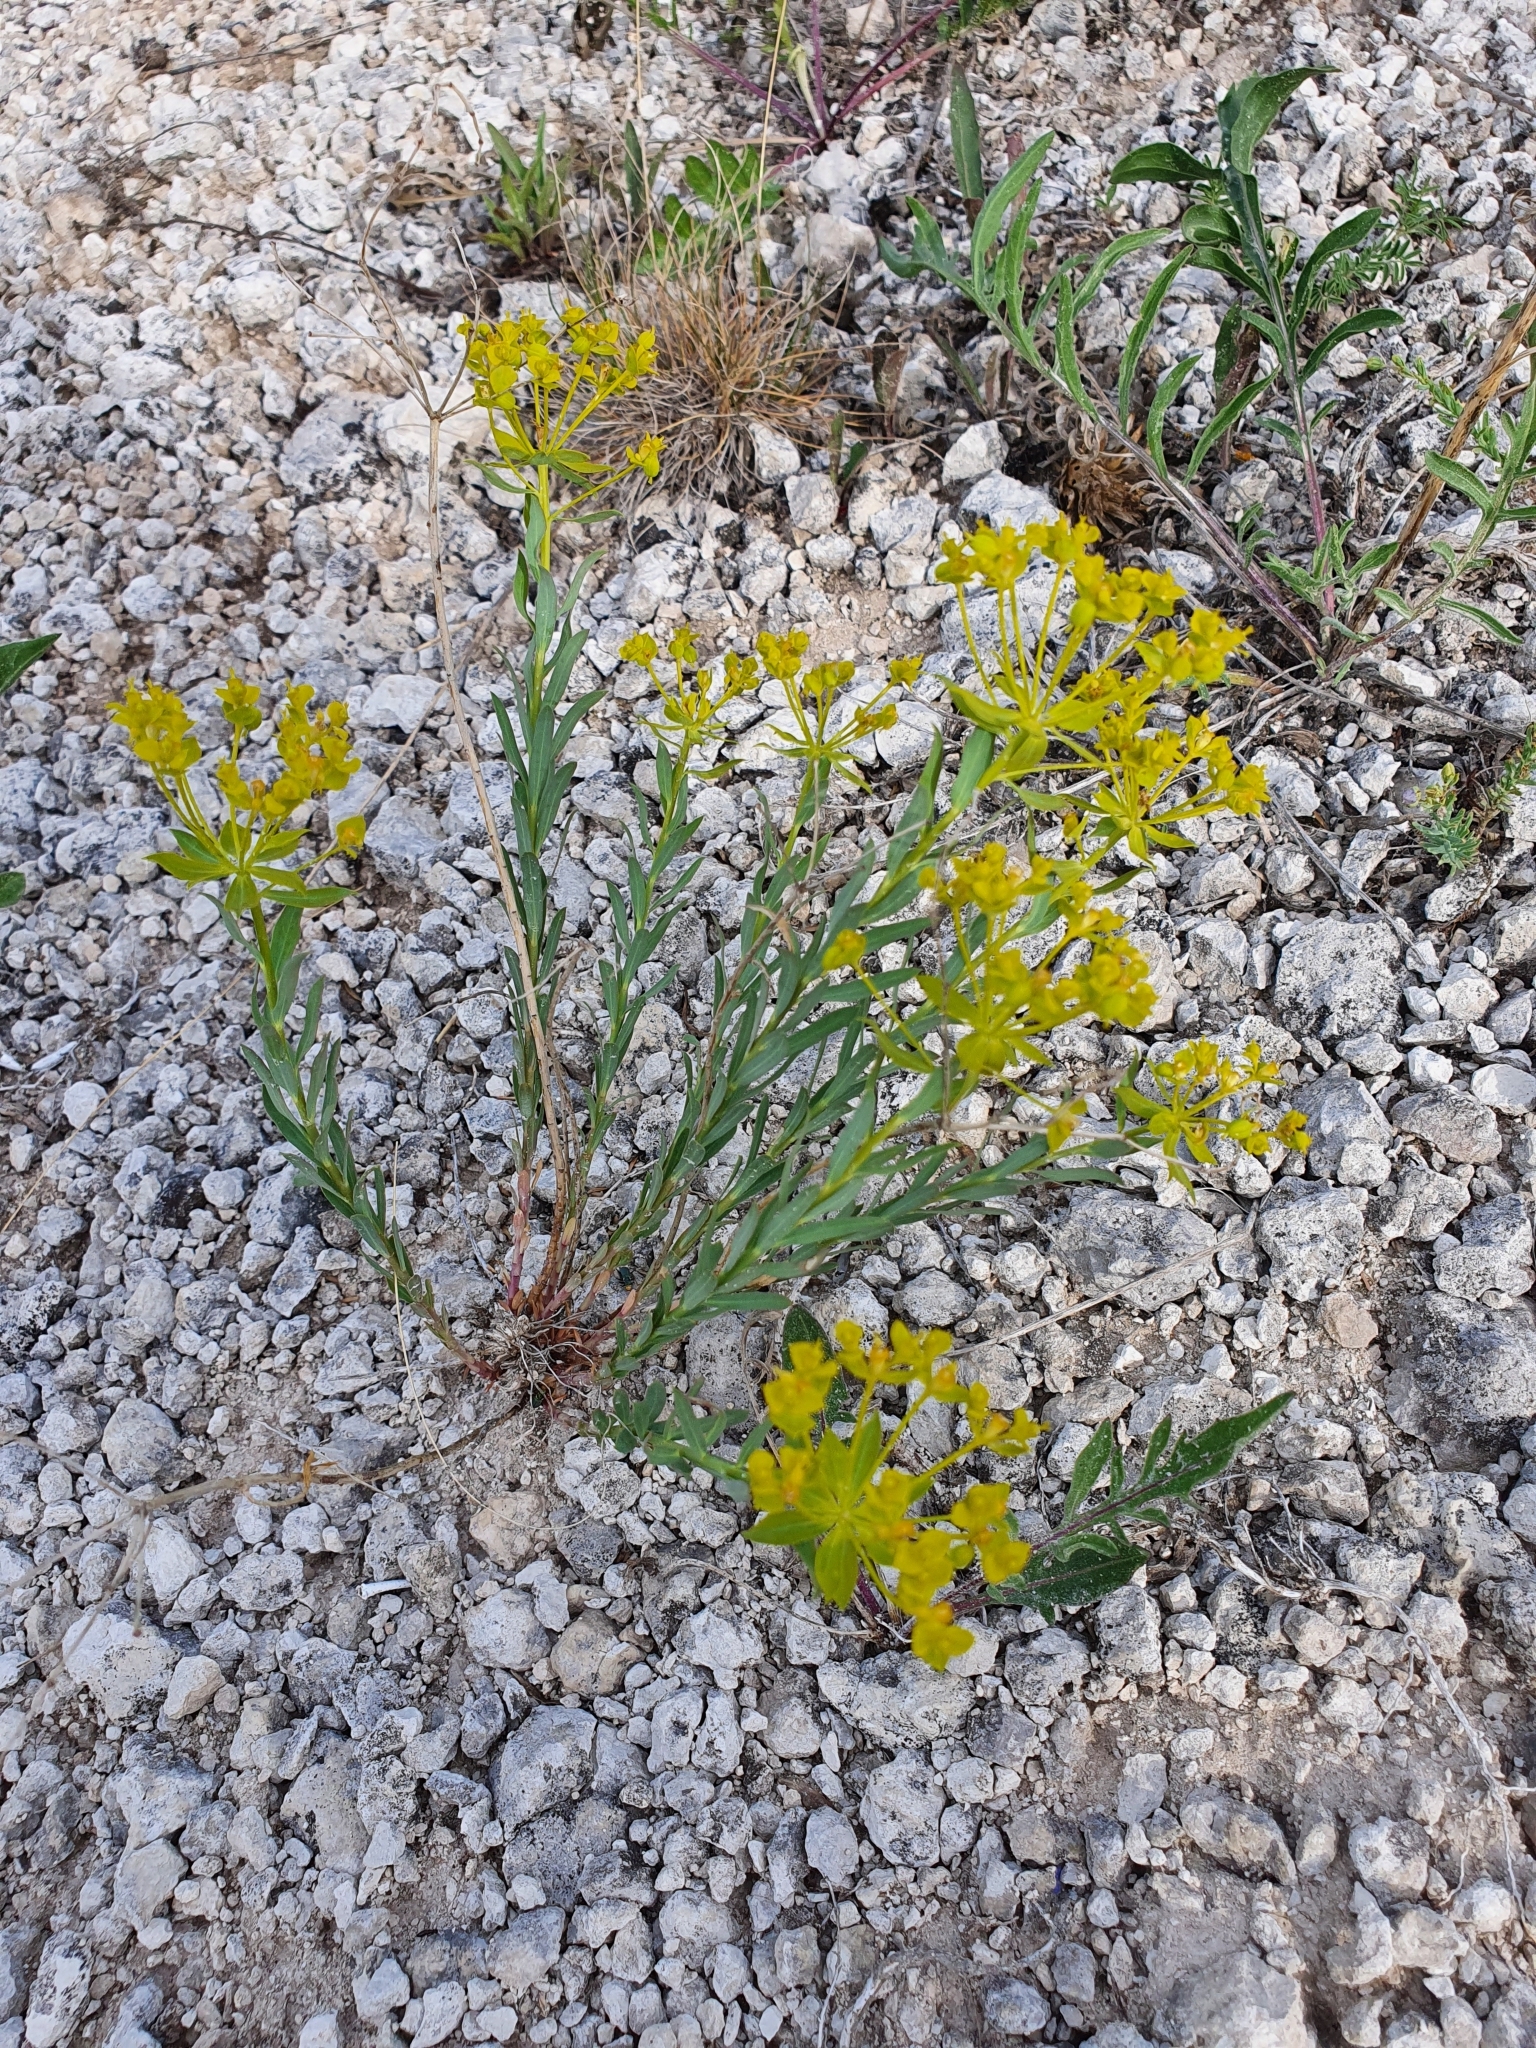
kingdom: Plantae
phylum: Tracheophyta
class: Magnoliopsida
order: Malpighiales
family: Euphorbiaceae
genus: Euphorbia
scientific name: Euphorbia seguieriana
